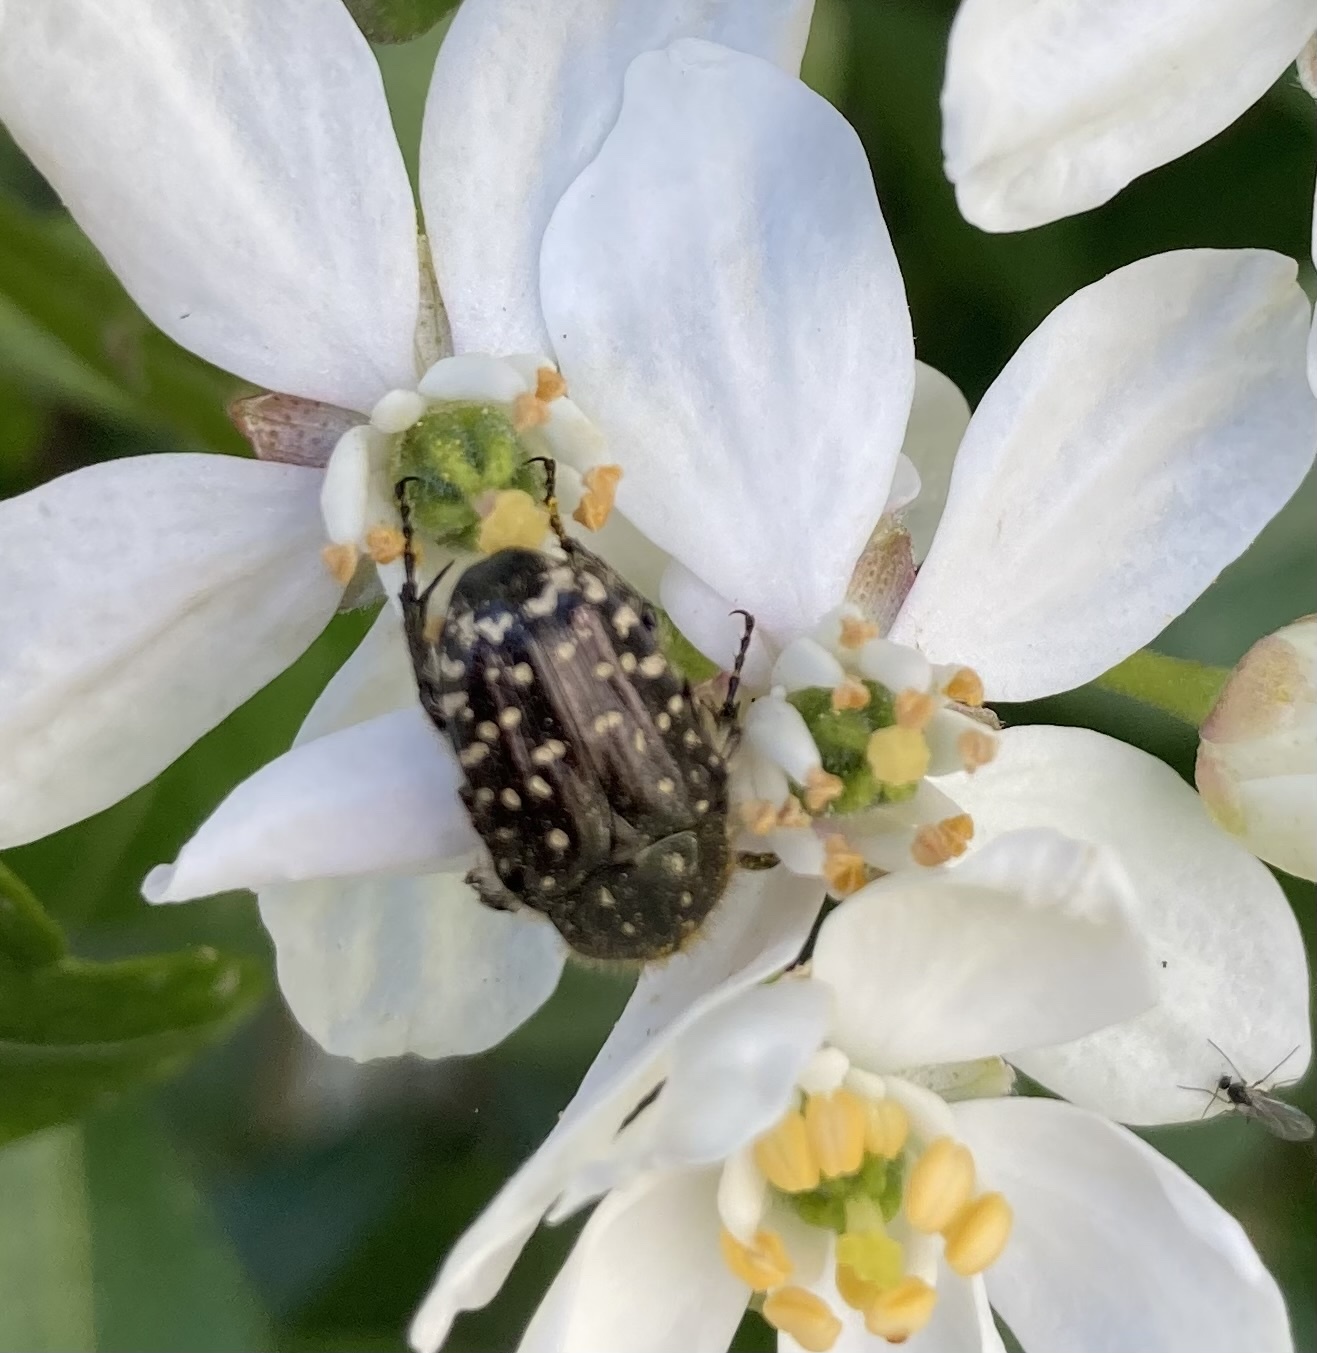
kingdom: Animalia
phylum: Arthropoda
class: Insecta
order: Coleoptera
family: Scarabaeidae
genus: Oxythyrea
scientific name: Oxythyrea funesta
